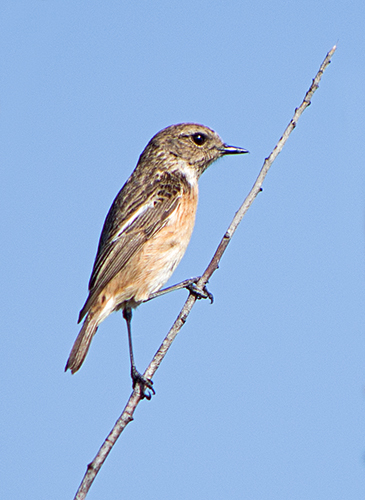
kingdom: Animalia
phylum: Chordata
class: Aves
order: Passeriformes
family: Muscicapidae
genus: Saxicola
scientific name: Saxicola rubicola
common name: European stonechat
